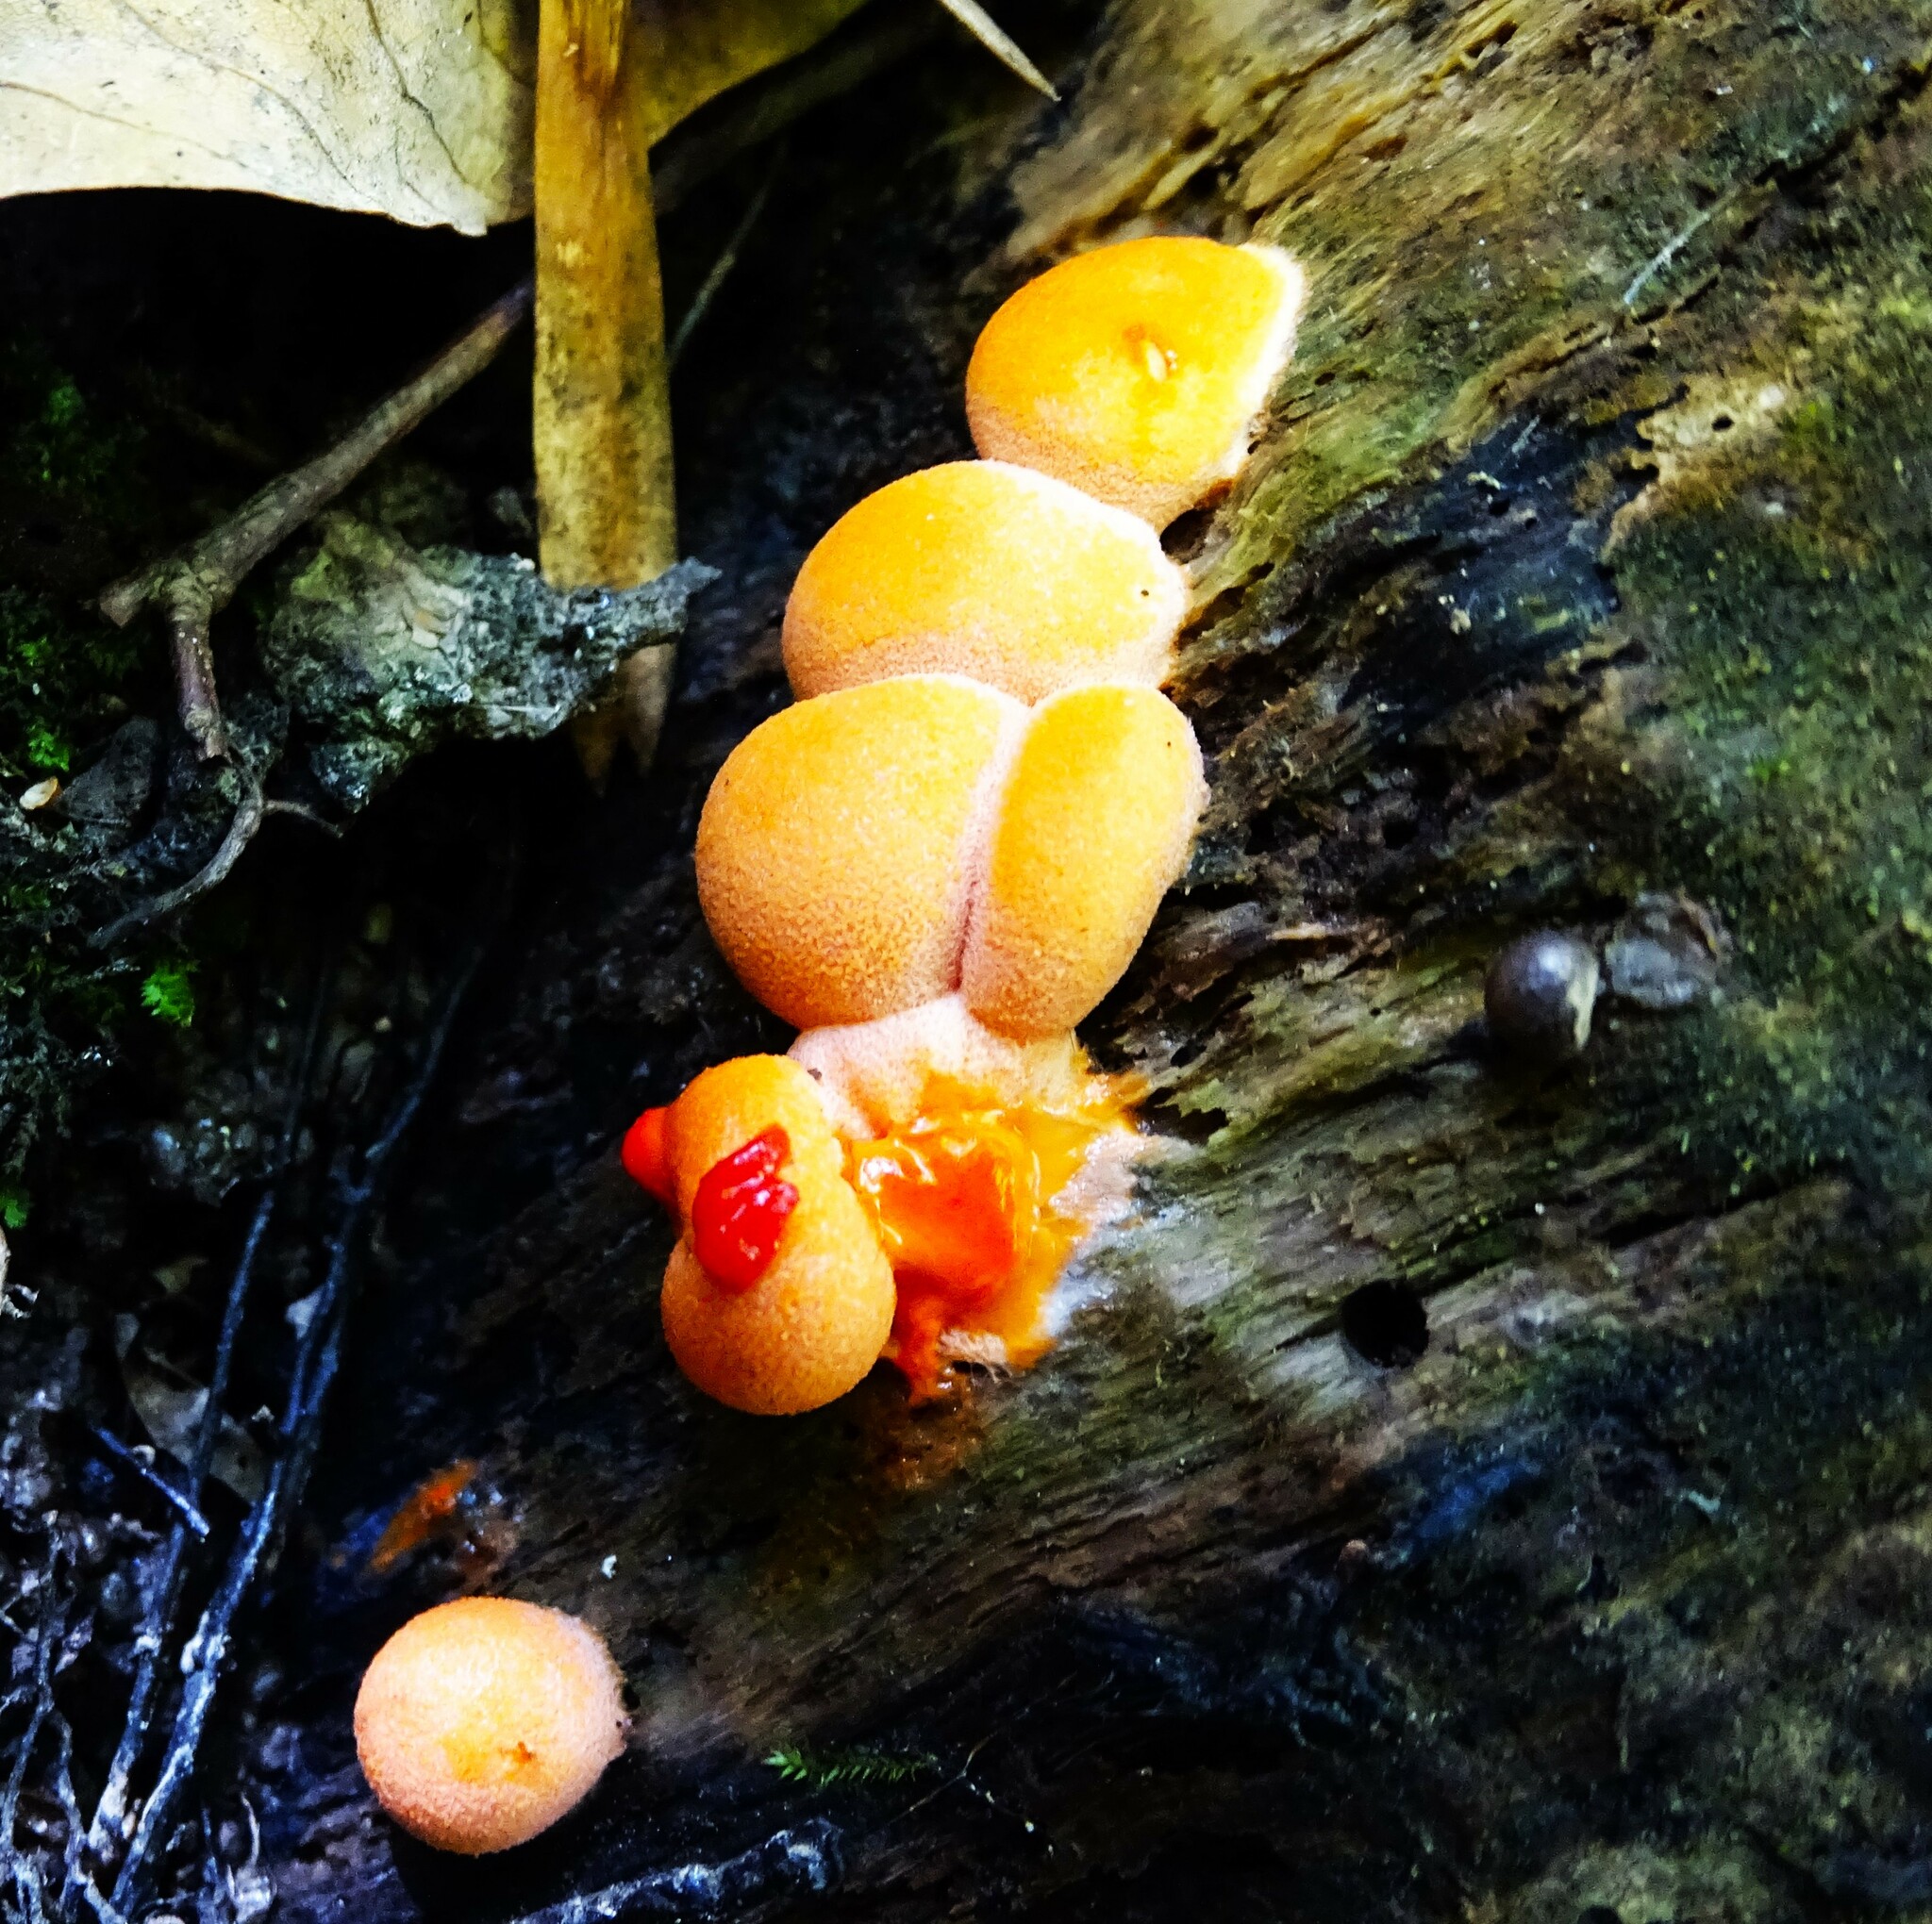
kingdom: Protozoa
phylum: Mycetozoa
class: Myxomycetes
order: Cribrariales
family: Tubiferaceae
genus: Lycogala
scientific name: Lycogala epidendrum
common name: Wolf's milk
